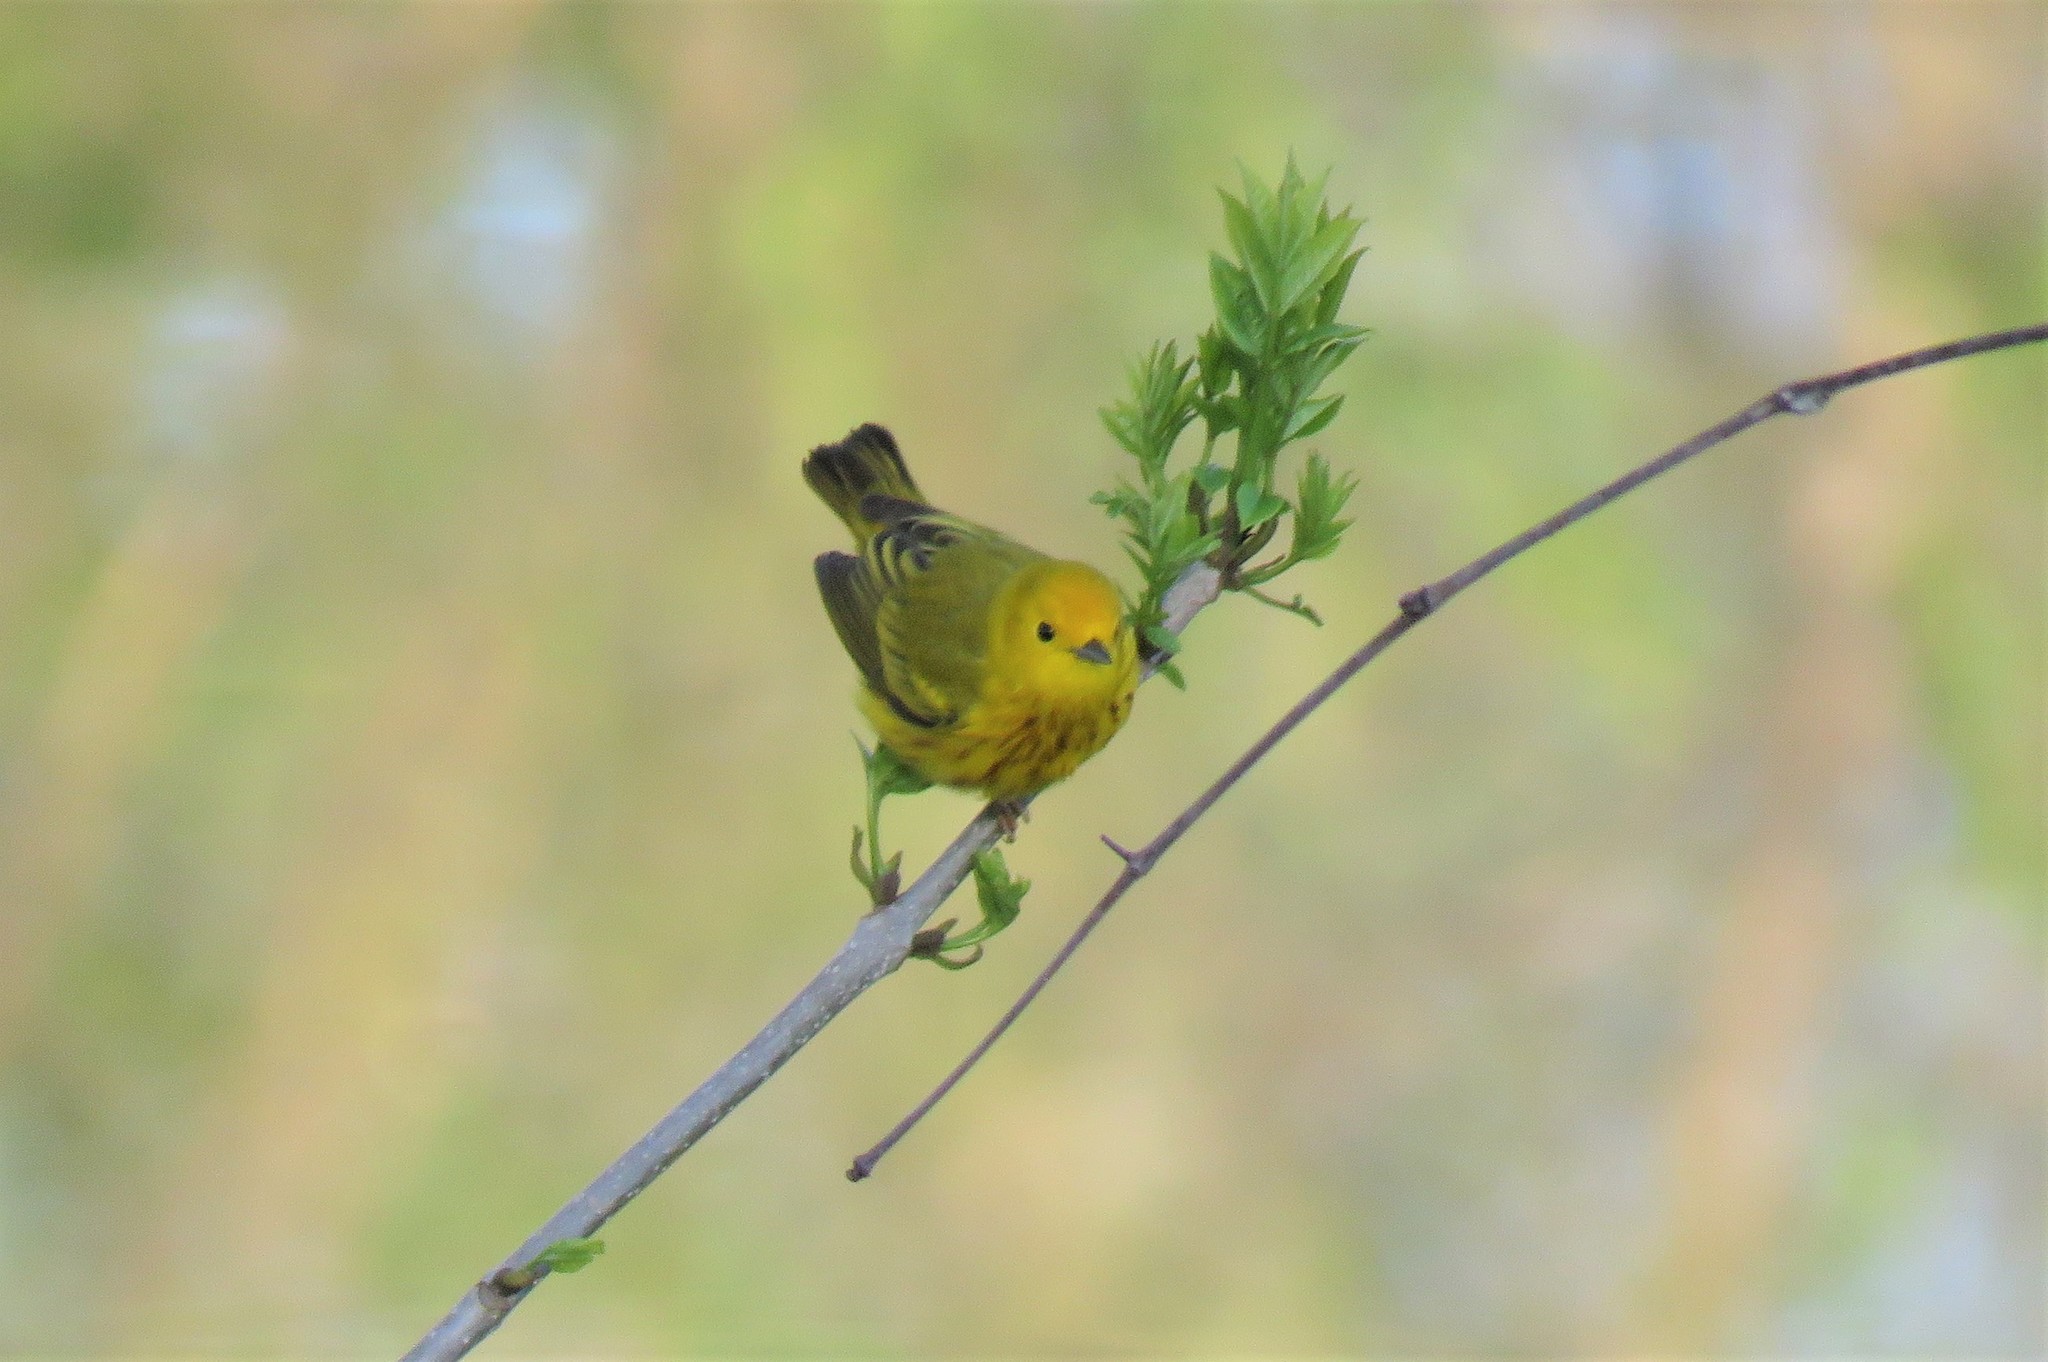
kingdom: Animalia
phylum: Chordata
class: Aves
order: Passeriformes
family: Parulidae
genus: Setophaga
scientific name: Setophaga petechia
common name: Yellow warbler
